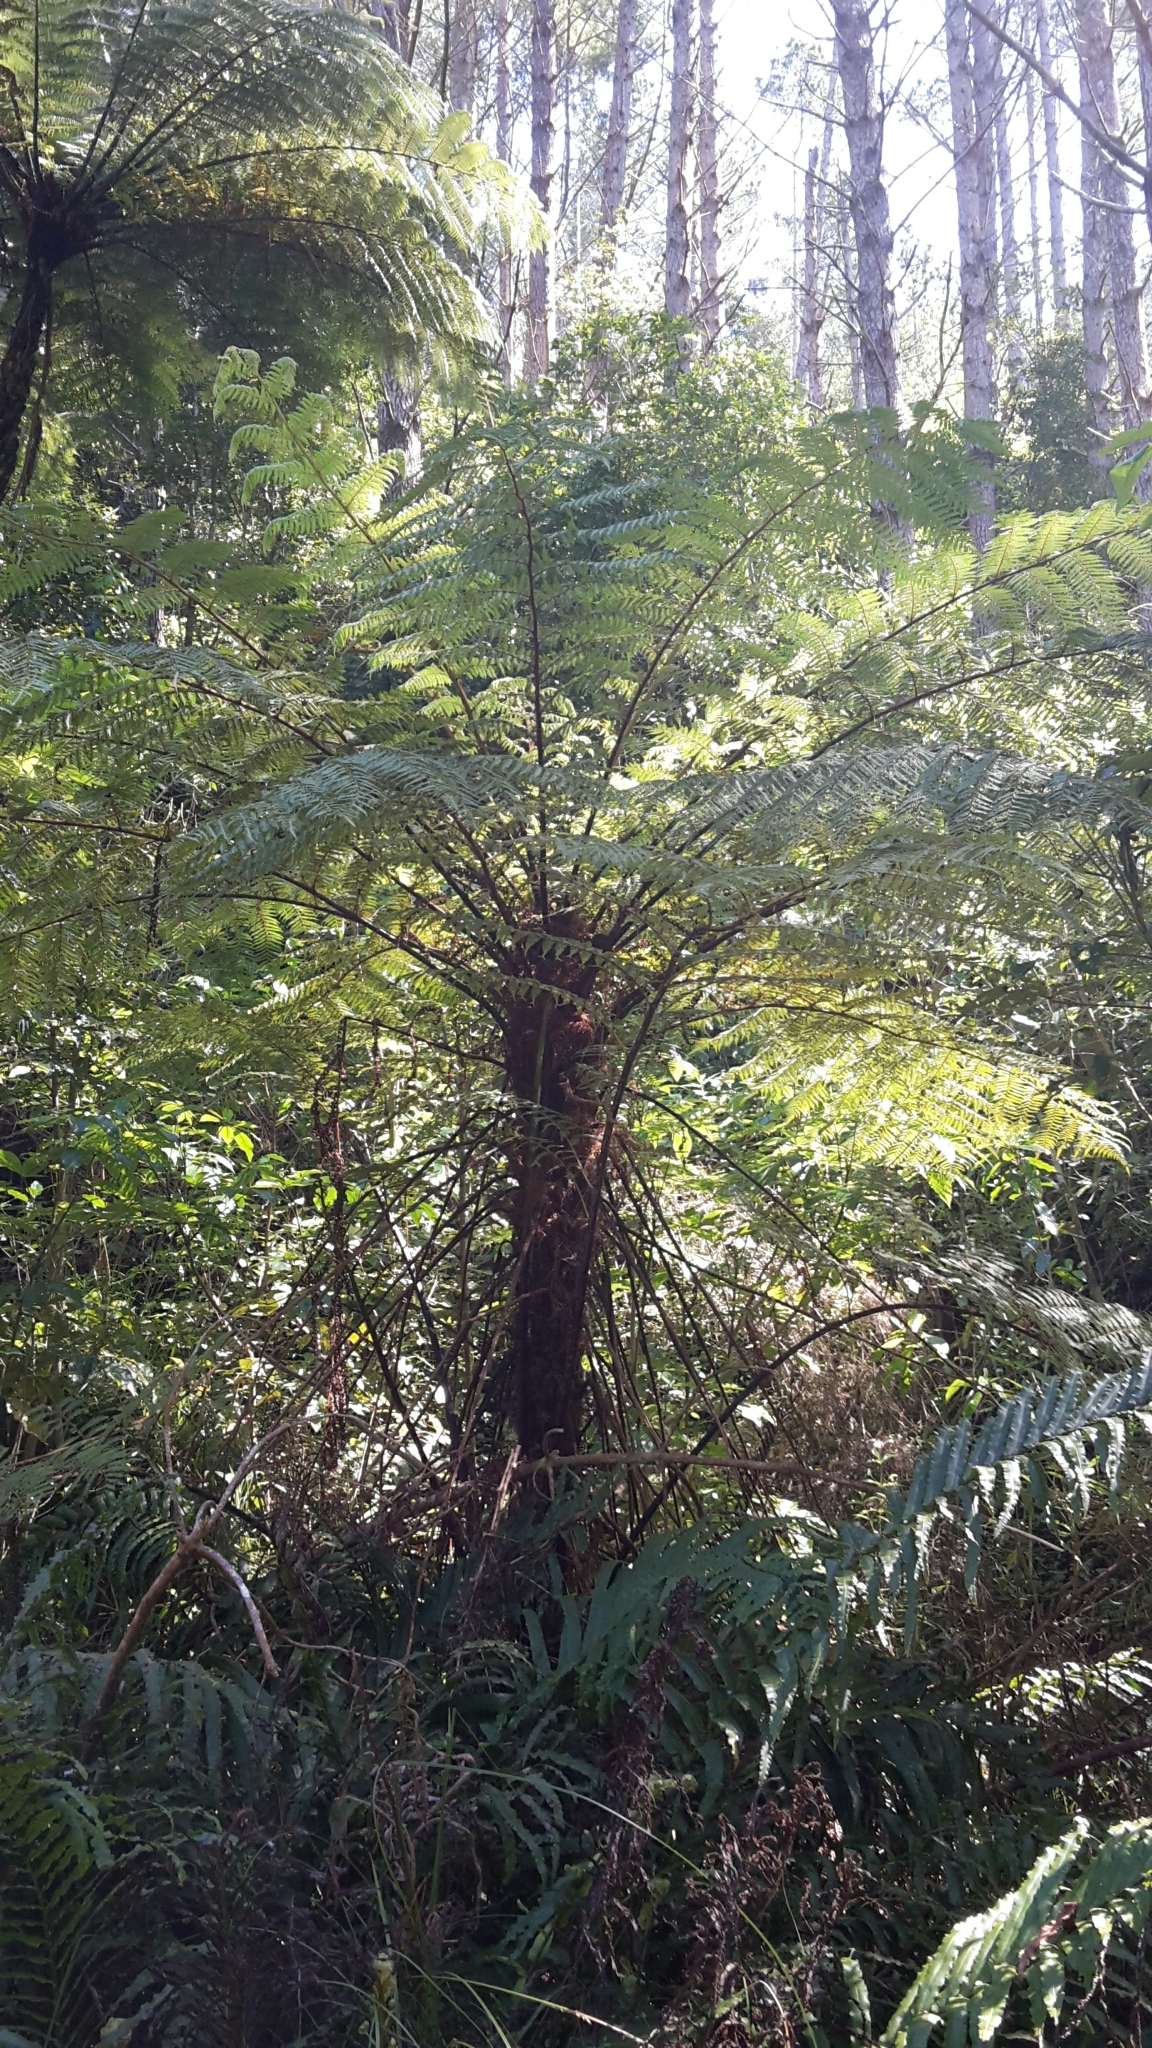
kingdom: Plantae
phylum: Tracheophyta
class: Polypodiopsida
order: Cyatheales
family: Cyatheaceae
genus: Cyathea
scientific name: Cyathea cunninghamii
